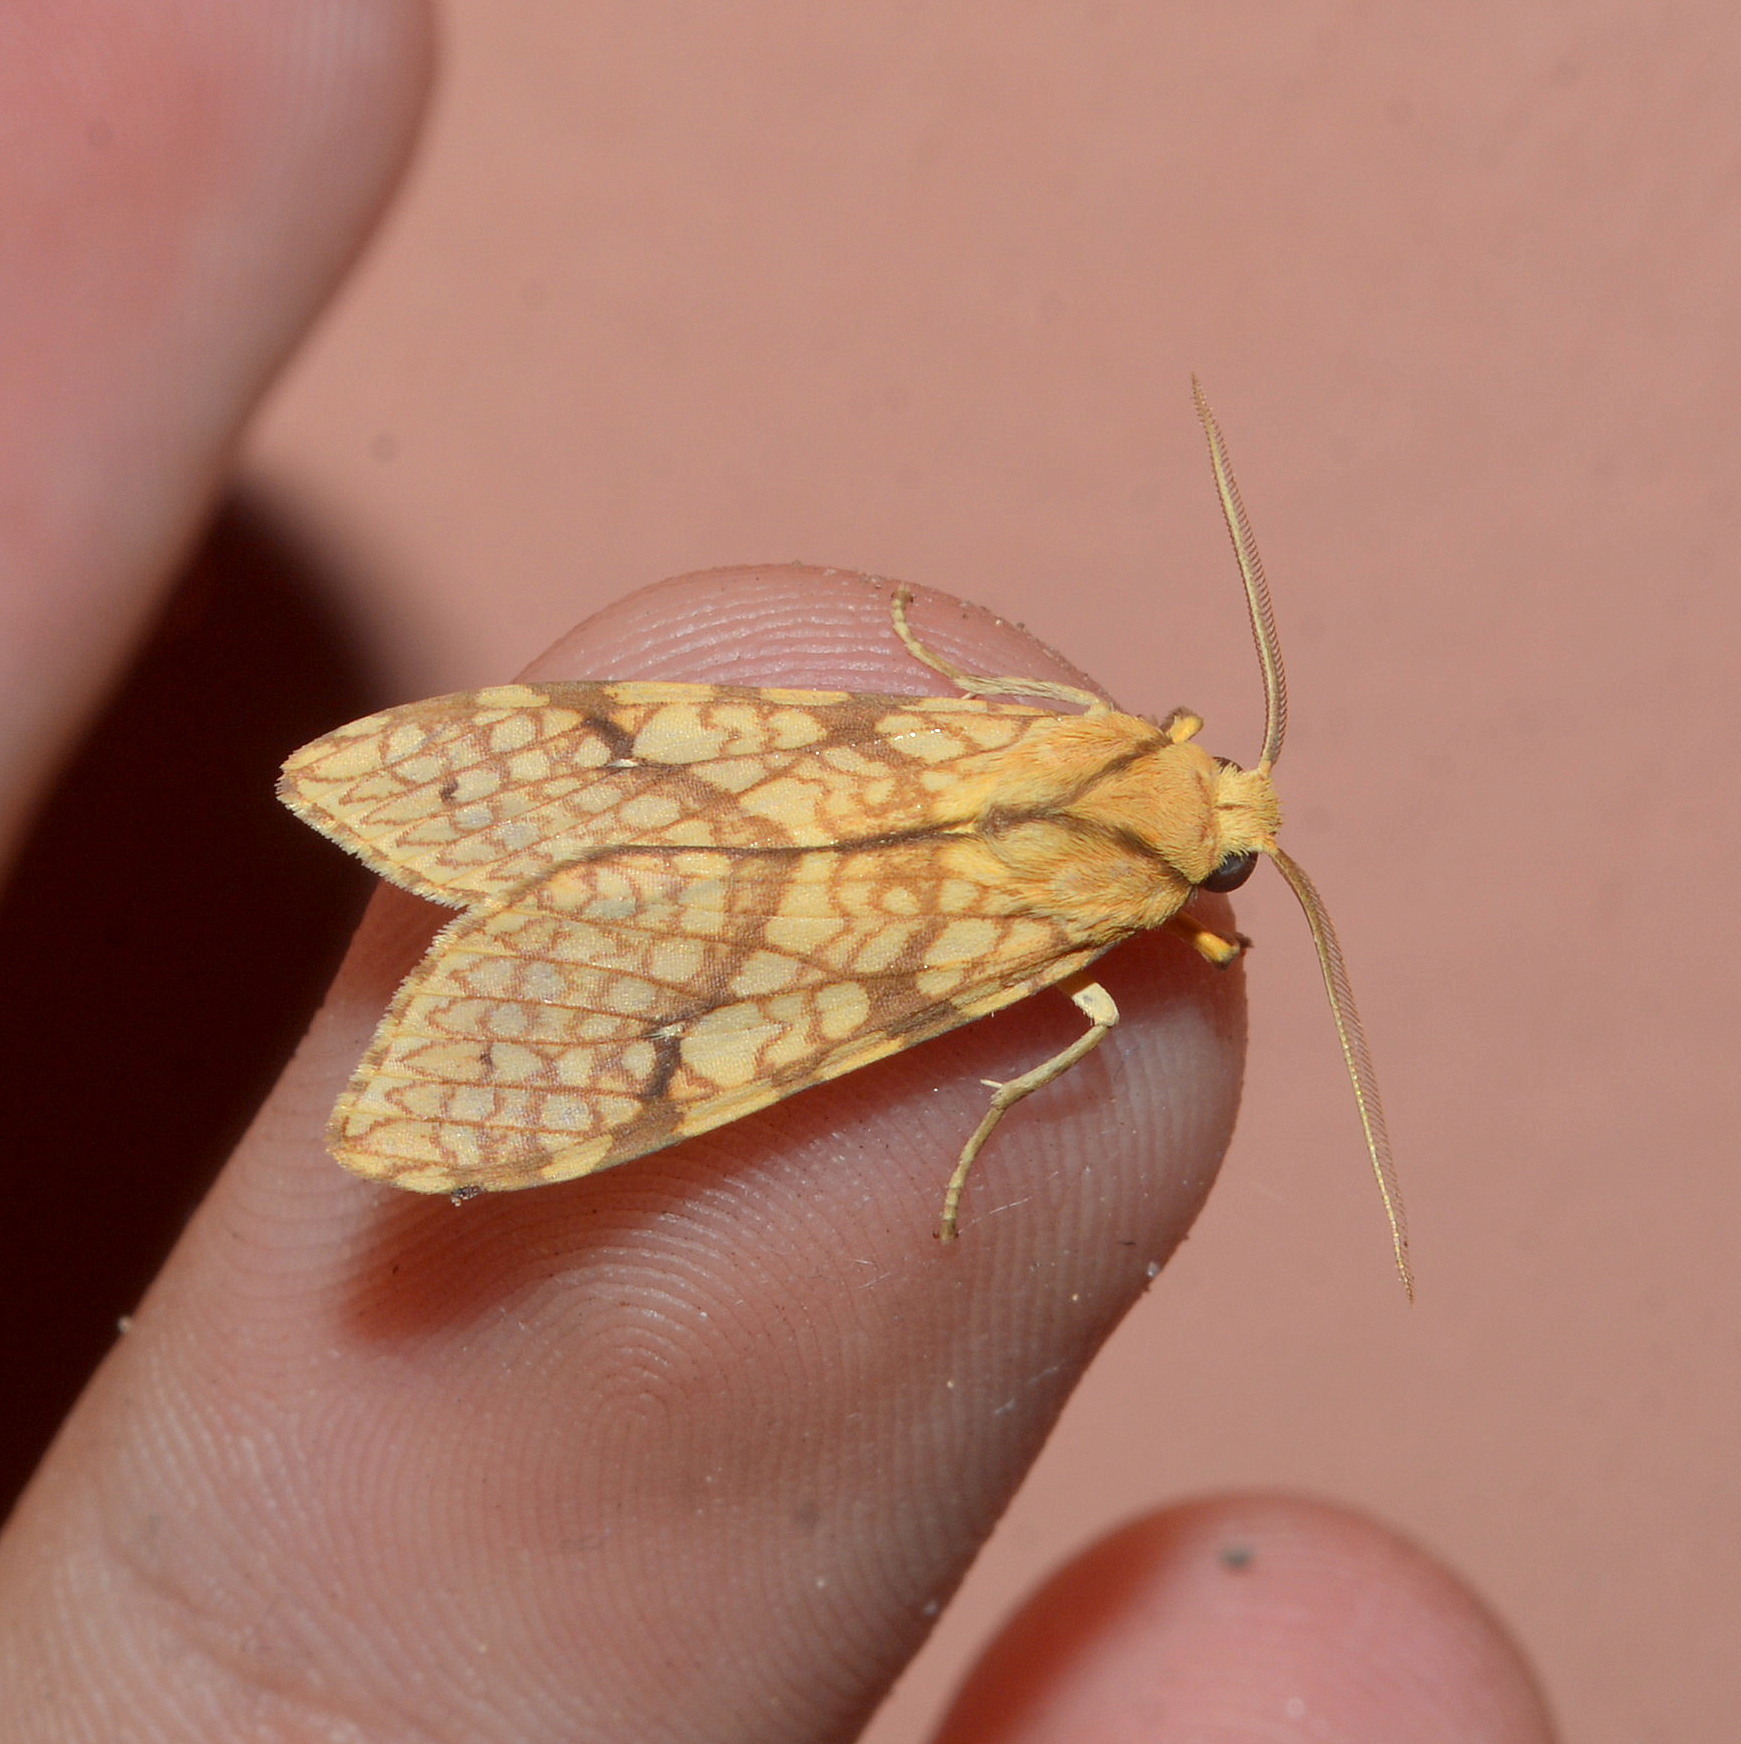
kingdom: Animalia
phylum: Arthropoda
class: Insecta
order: Lepidoptera
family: Erebidae
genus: Lophocampa
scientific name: Lophocampa catenulata
